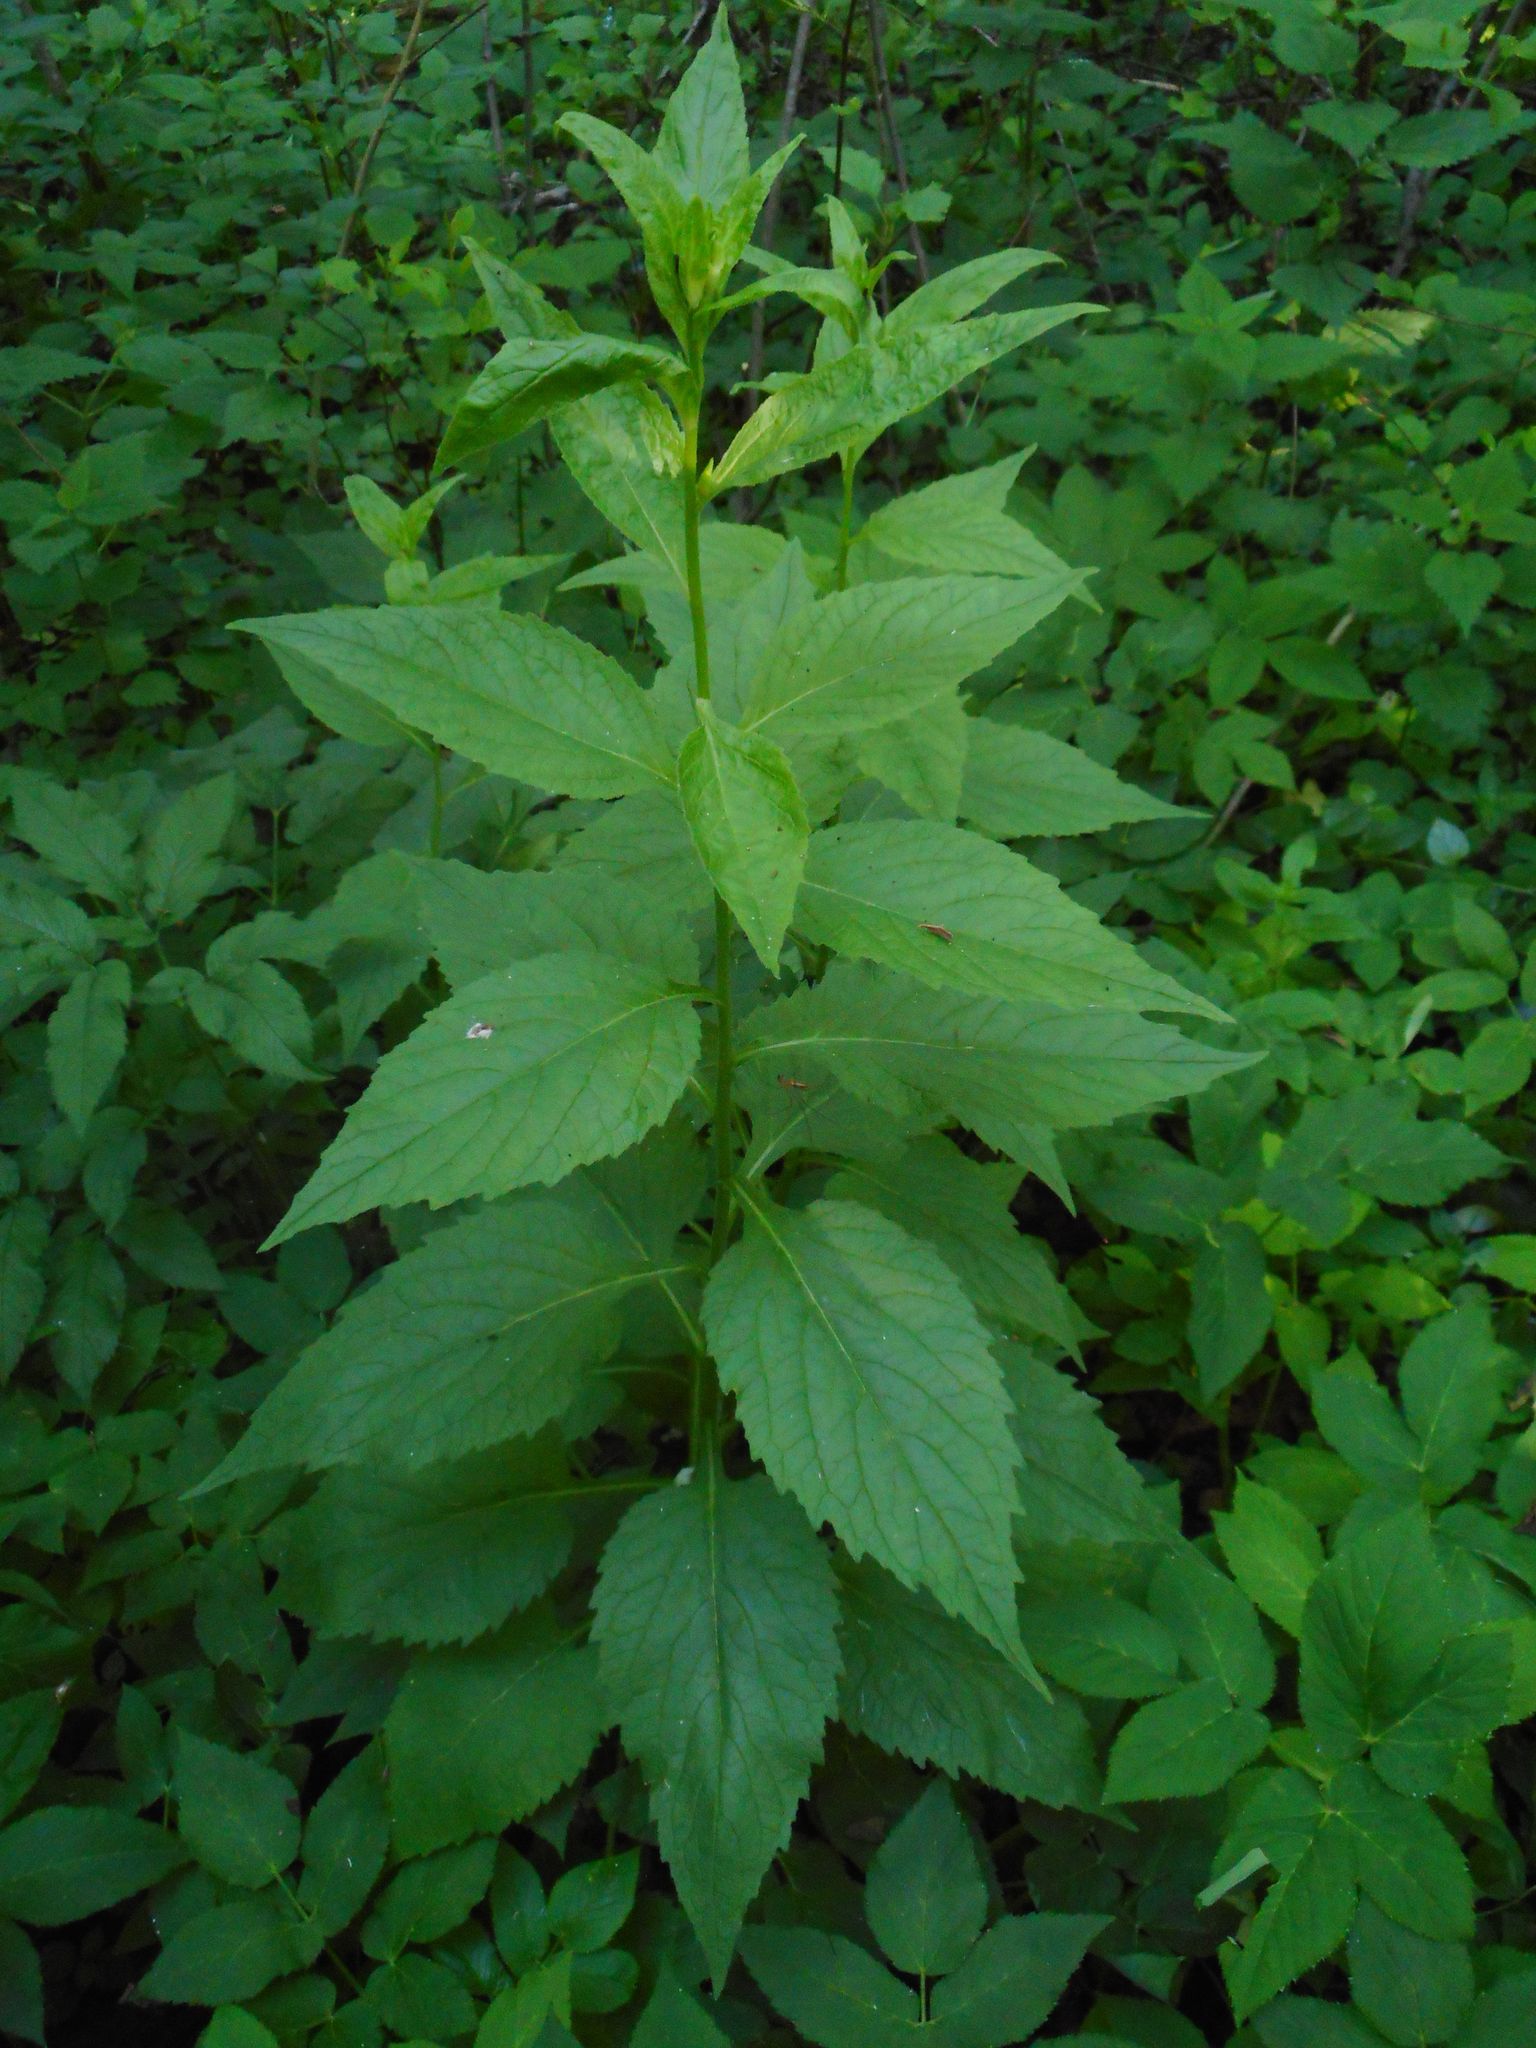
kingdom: Plantae
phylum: Tracheophyta
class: Magnoliopsida
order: Asterales
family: Campanulaceae
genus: Campanula
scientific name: Campanula latifolia
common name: Giant bellflower
